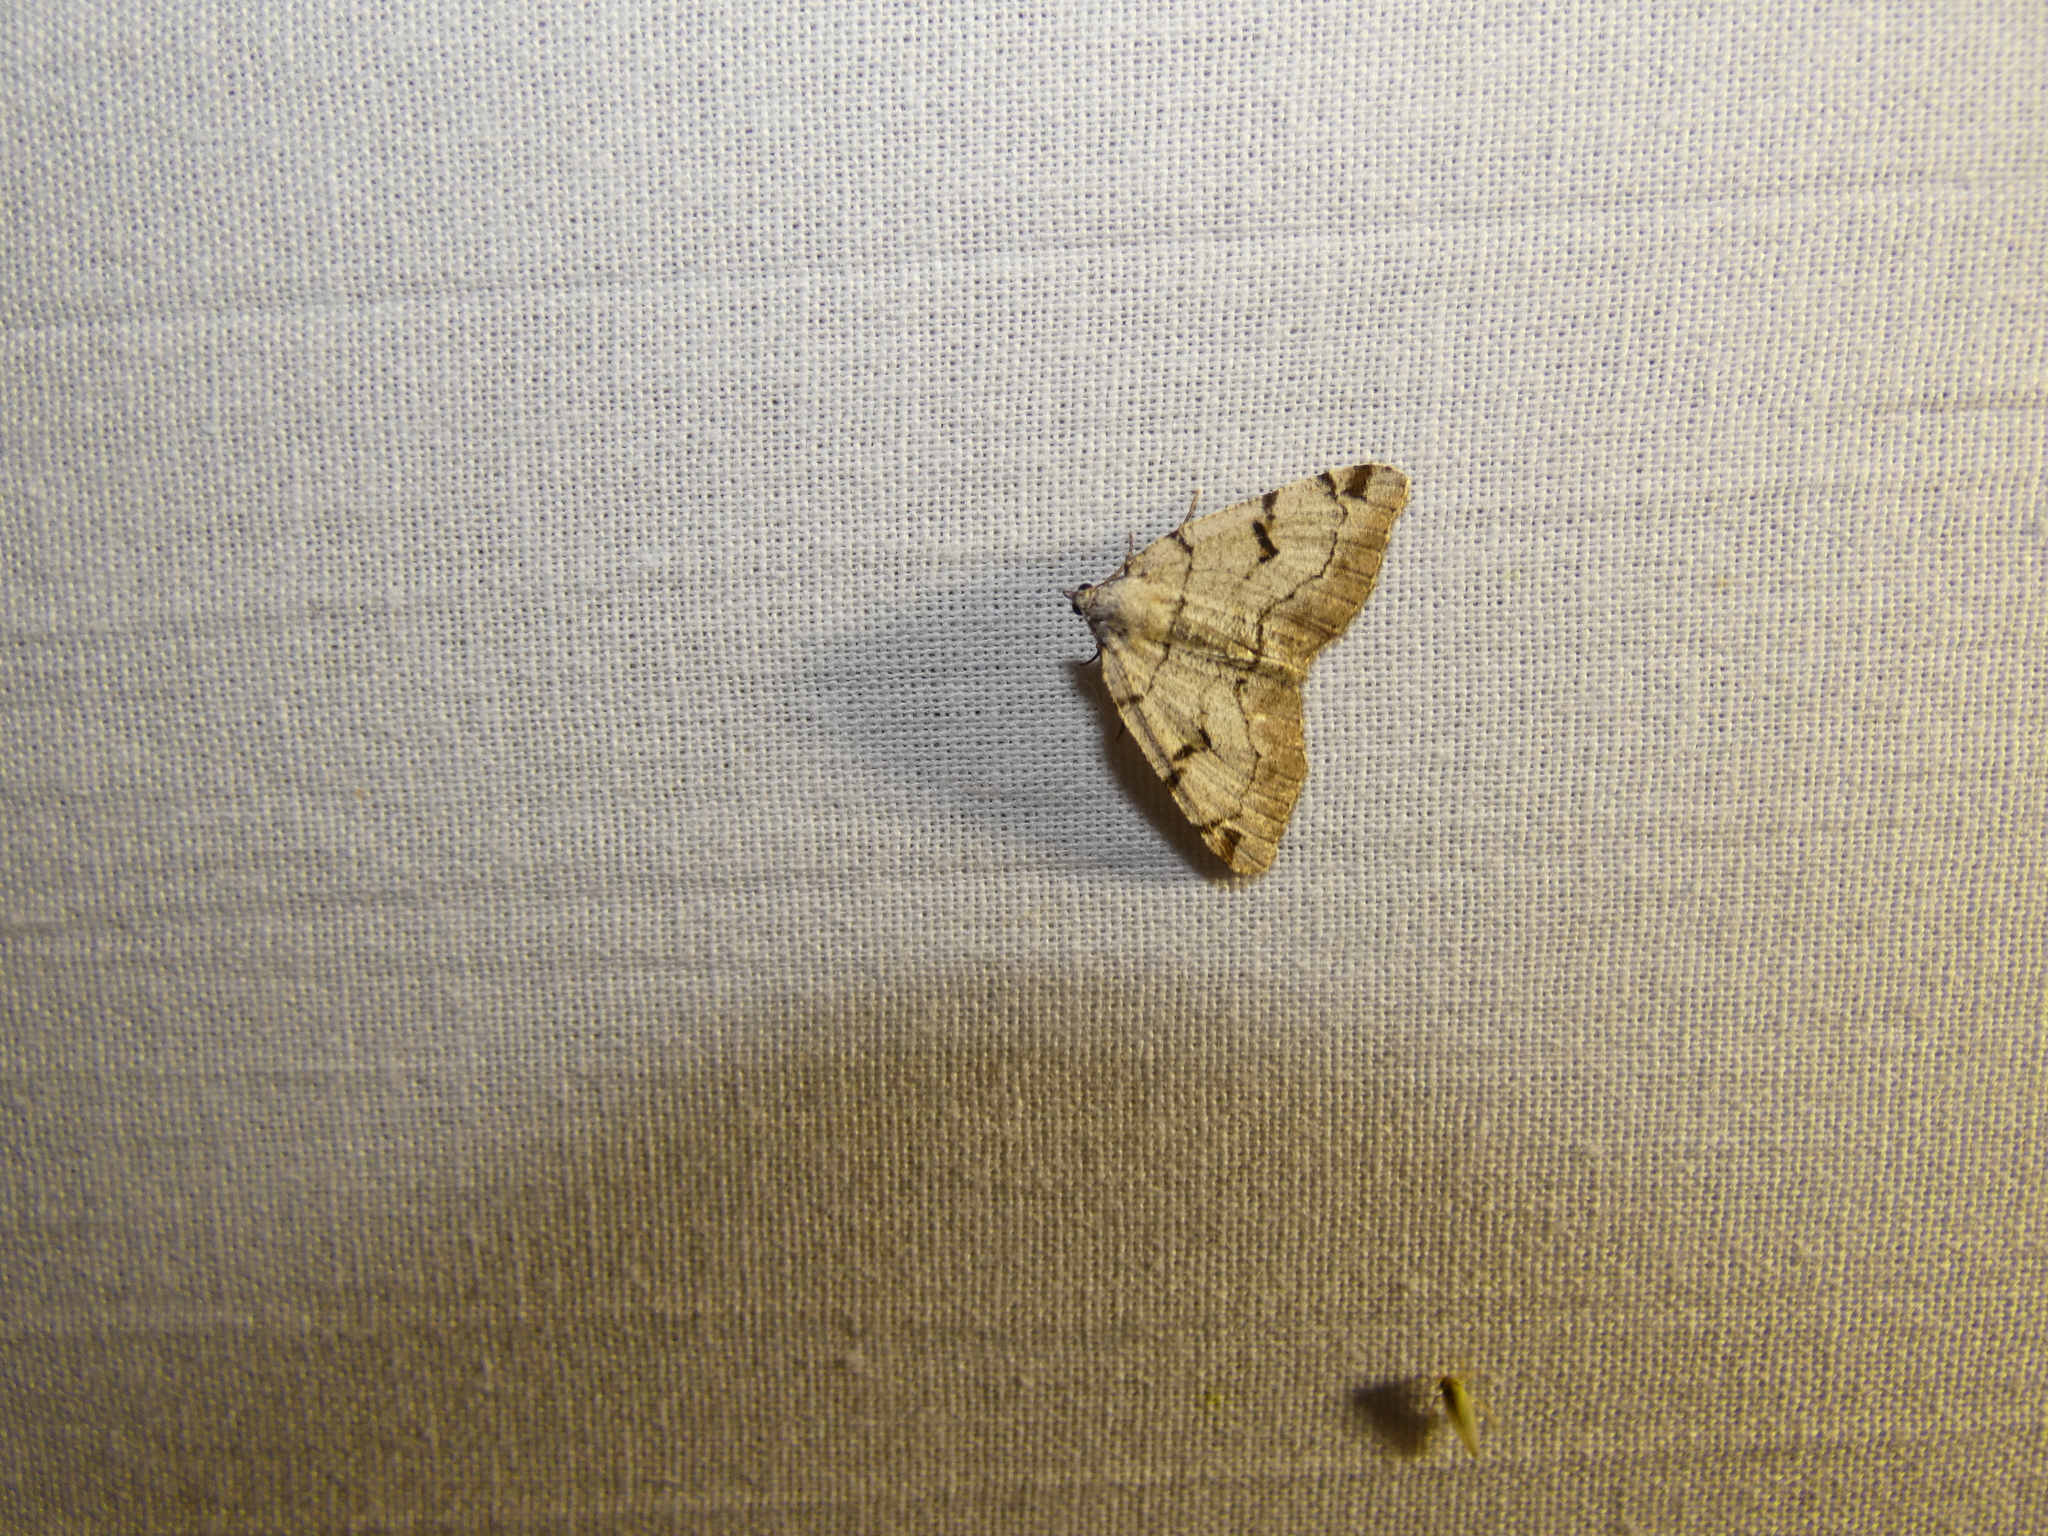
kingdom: Animalia
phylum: Arthropoda
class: Insecta
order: Lepidoptera
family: Geometridae
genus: Macaria
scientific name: Macaria wauaria
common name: V-moth
